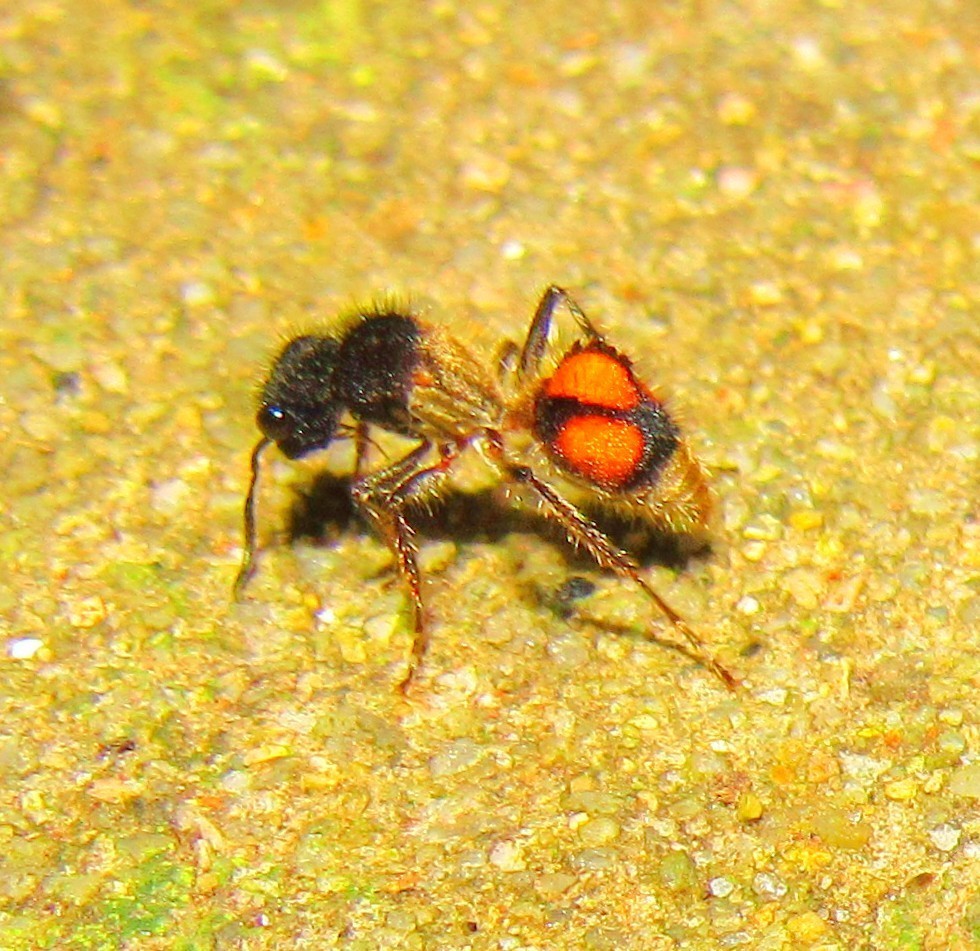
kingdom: Animalia
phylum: Arthropoda
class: Insecta
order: Hymenoptera
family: Mutillidae
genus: Lophomutilla
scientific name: Lophomutilla prionophora
